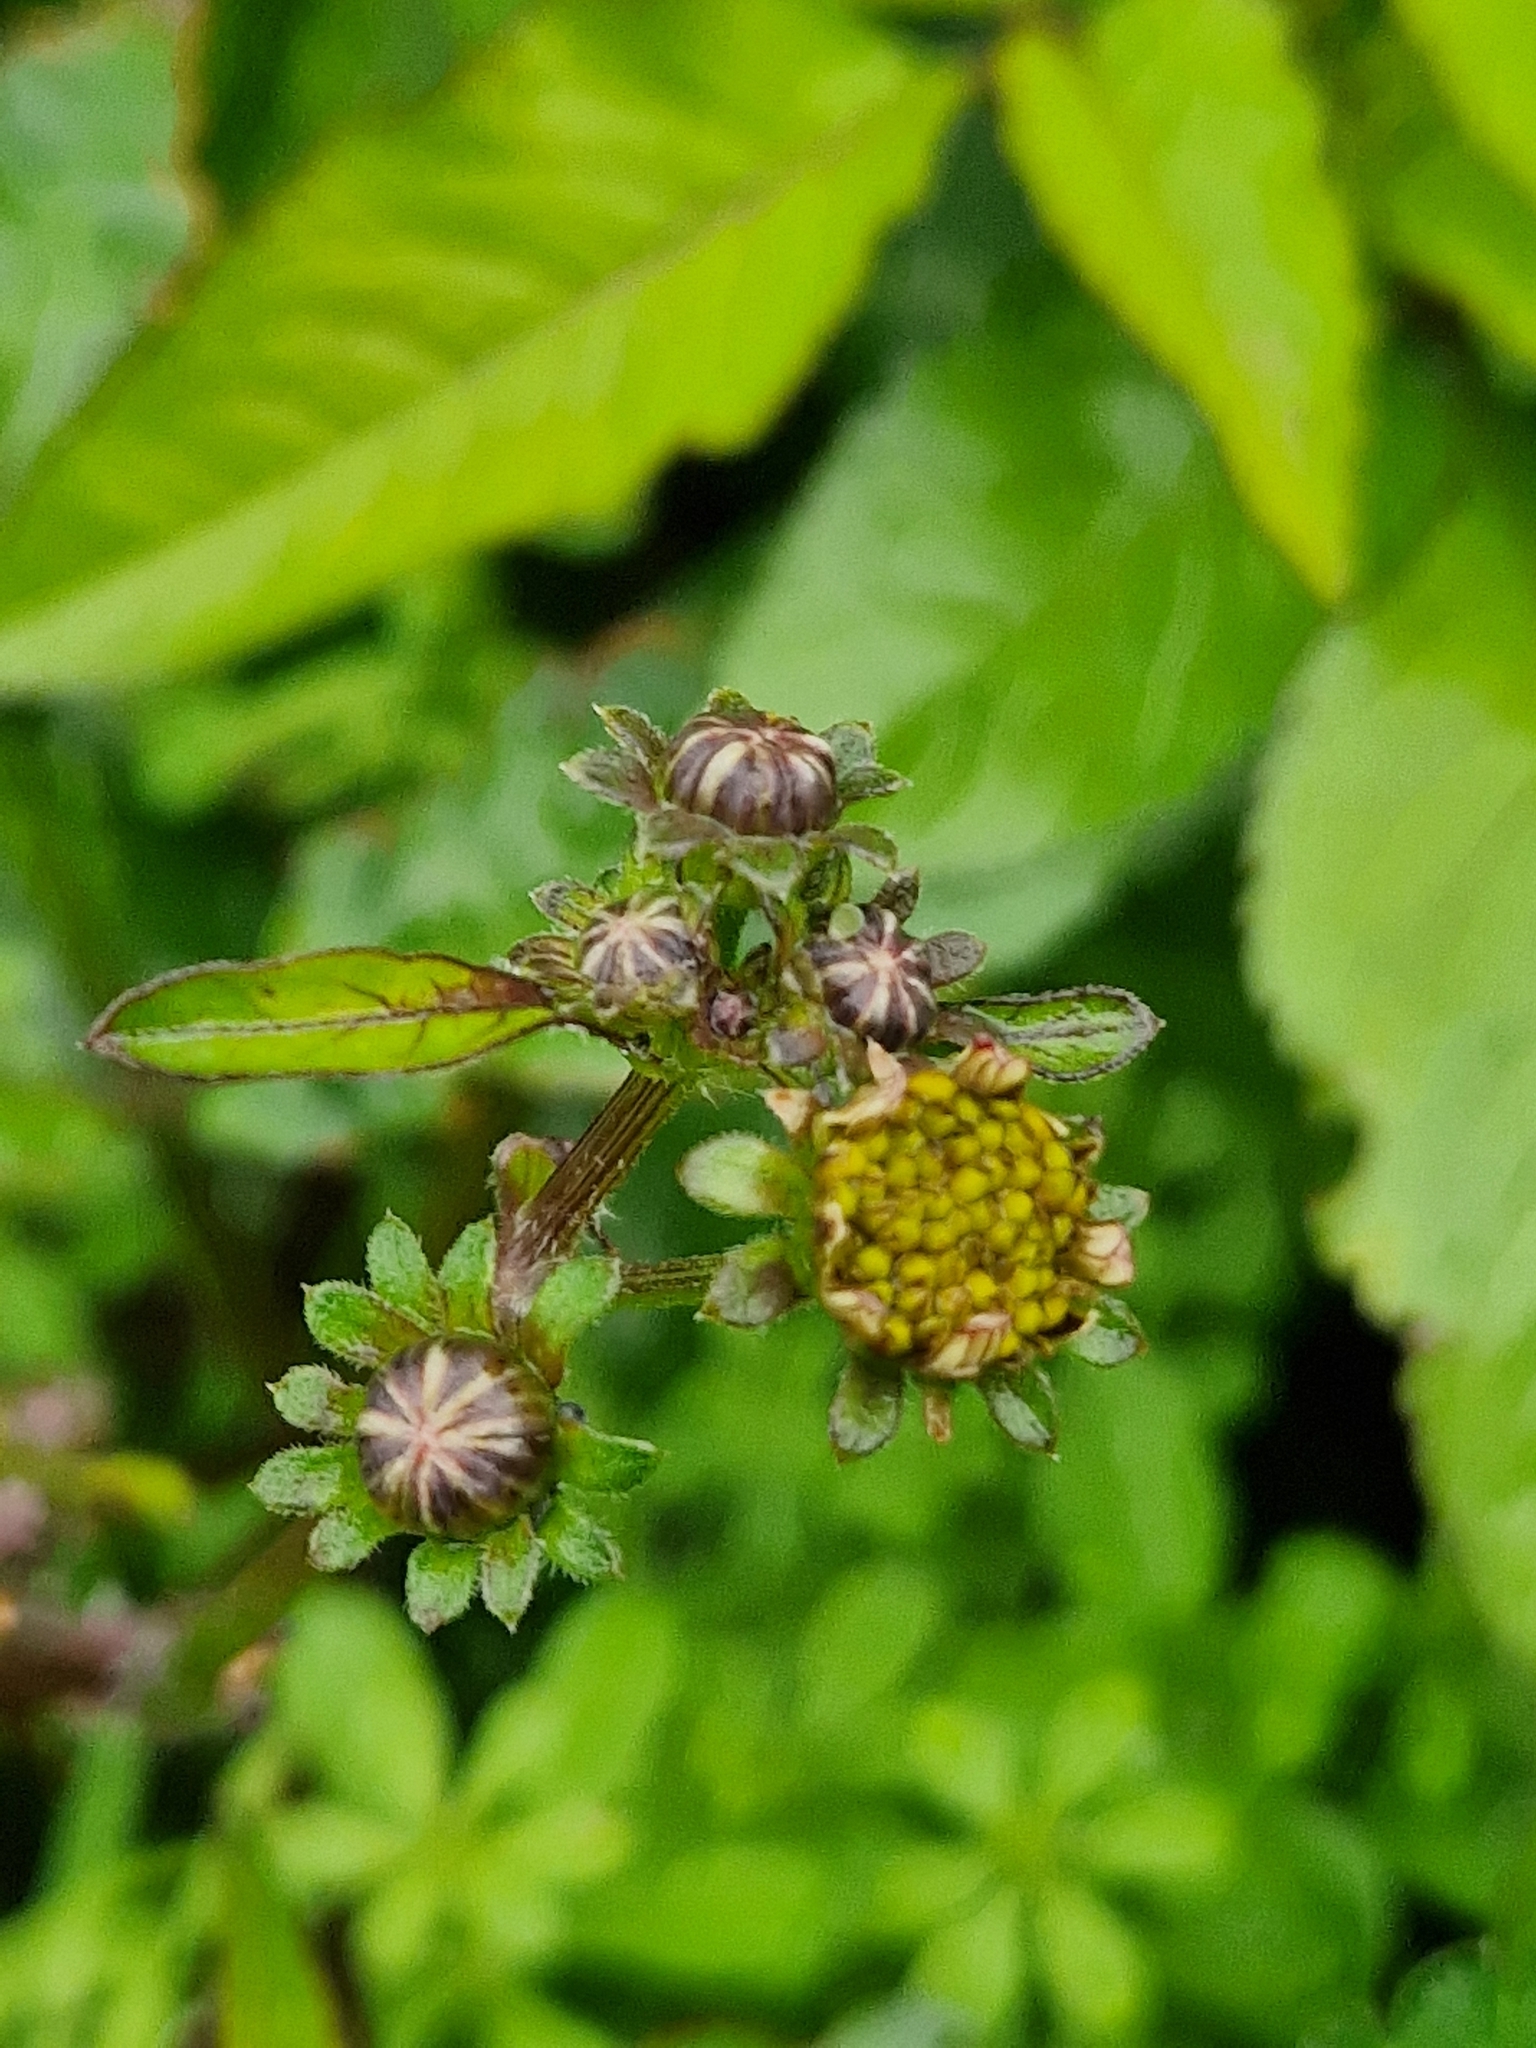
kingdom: Plantae
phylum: Tracheophyta
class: Magnoliopsida
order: Asterales
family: Asteraceae
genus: Bidens
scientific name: Bidens alba
